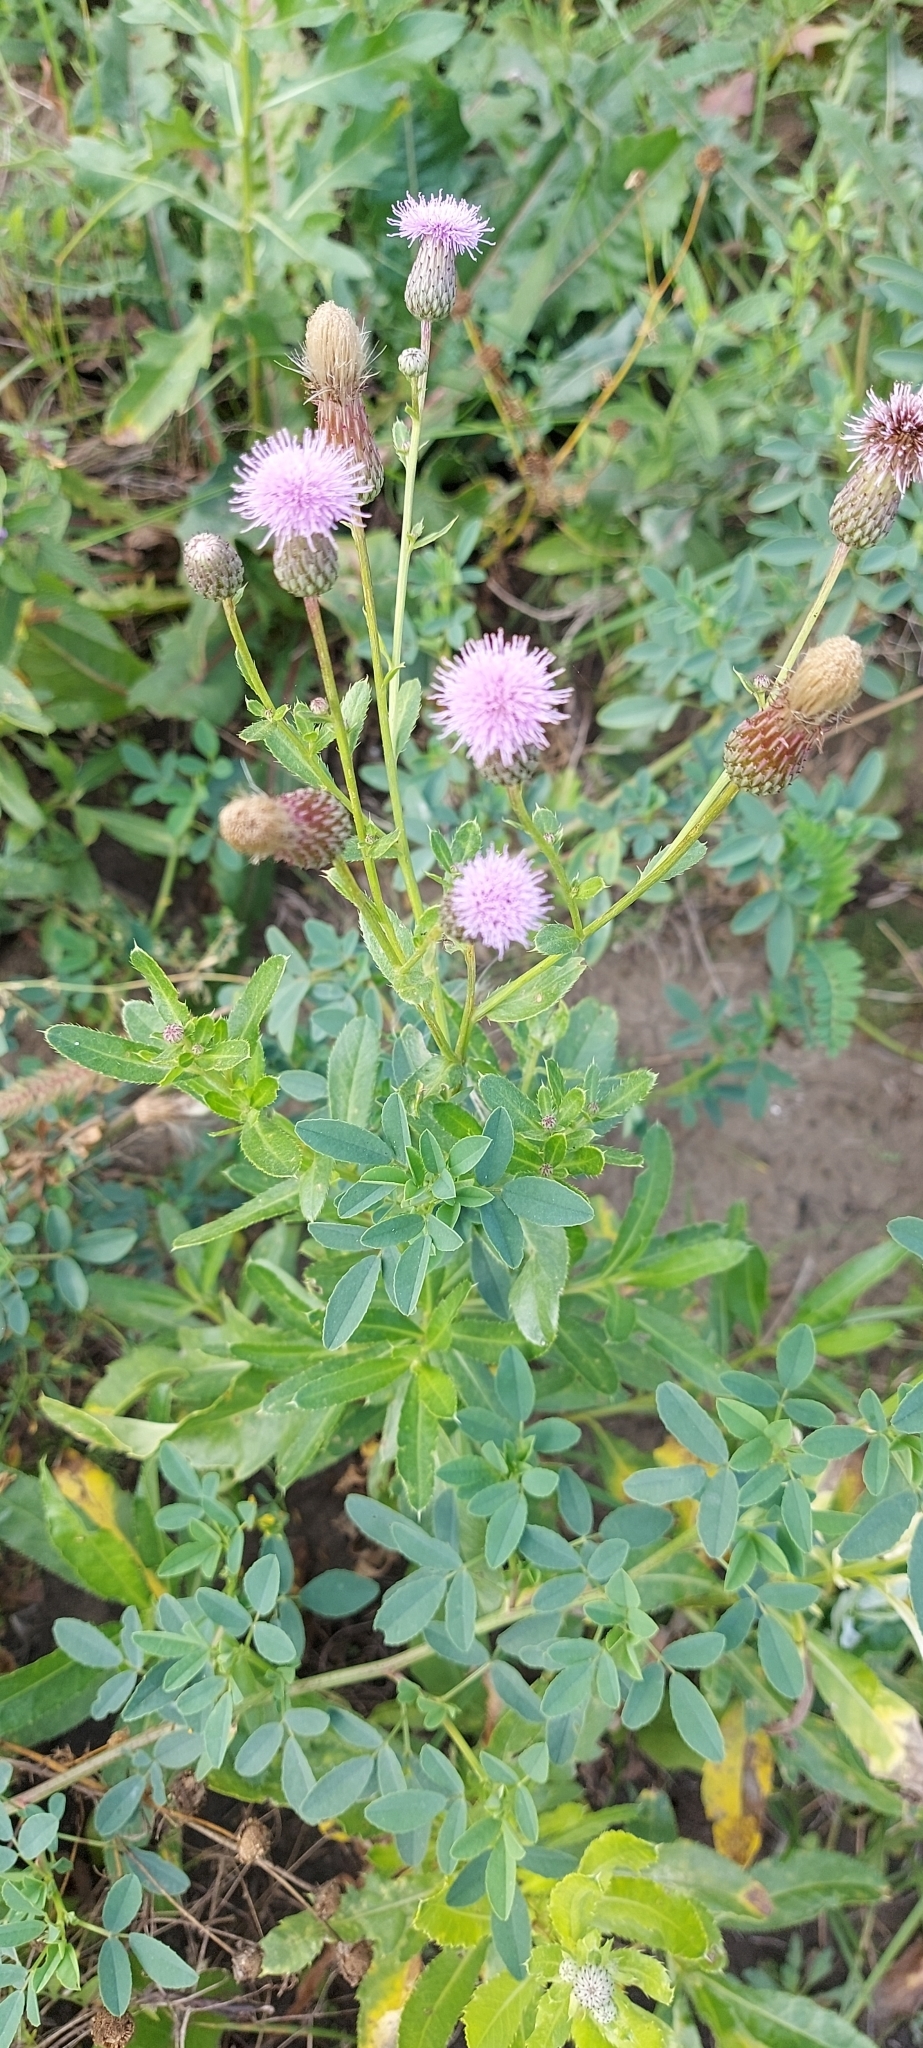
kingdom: Plantae
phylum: Tracheophyta
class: Magnoliopsida
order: Asterales
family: Asteraceae
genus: Cirsium
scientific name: Cirsium arvense
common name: Creeping thistle
